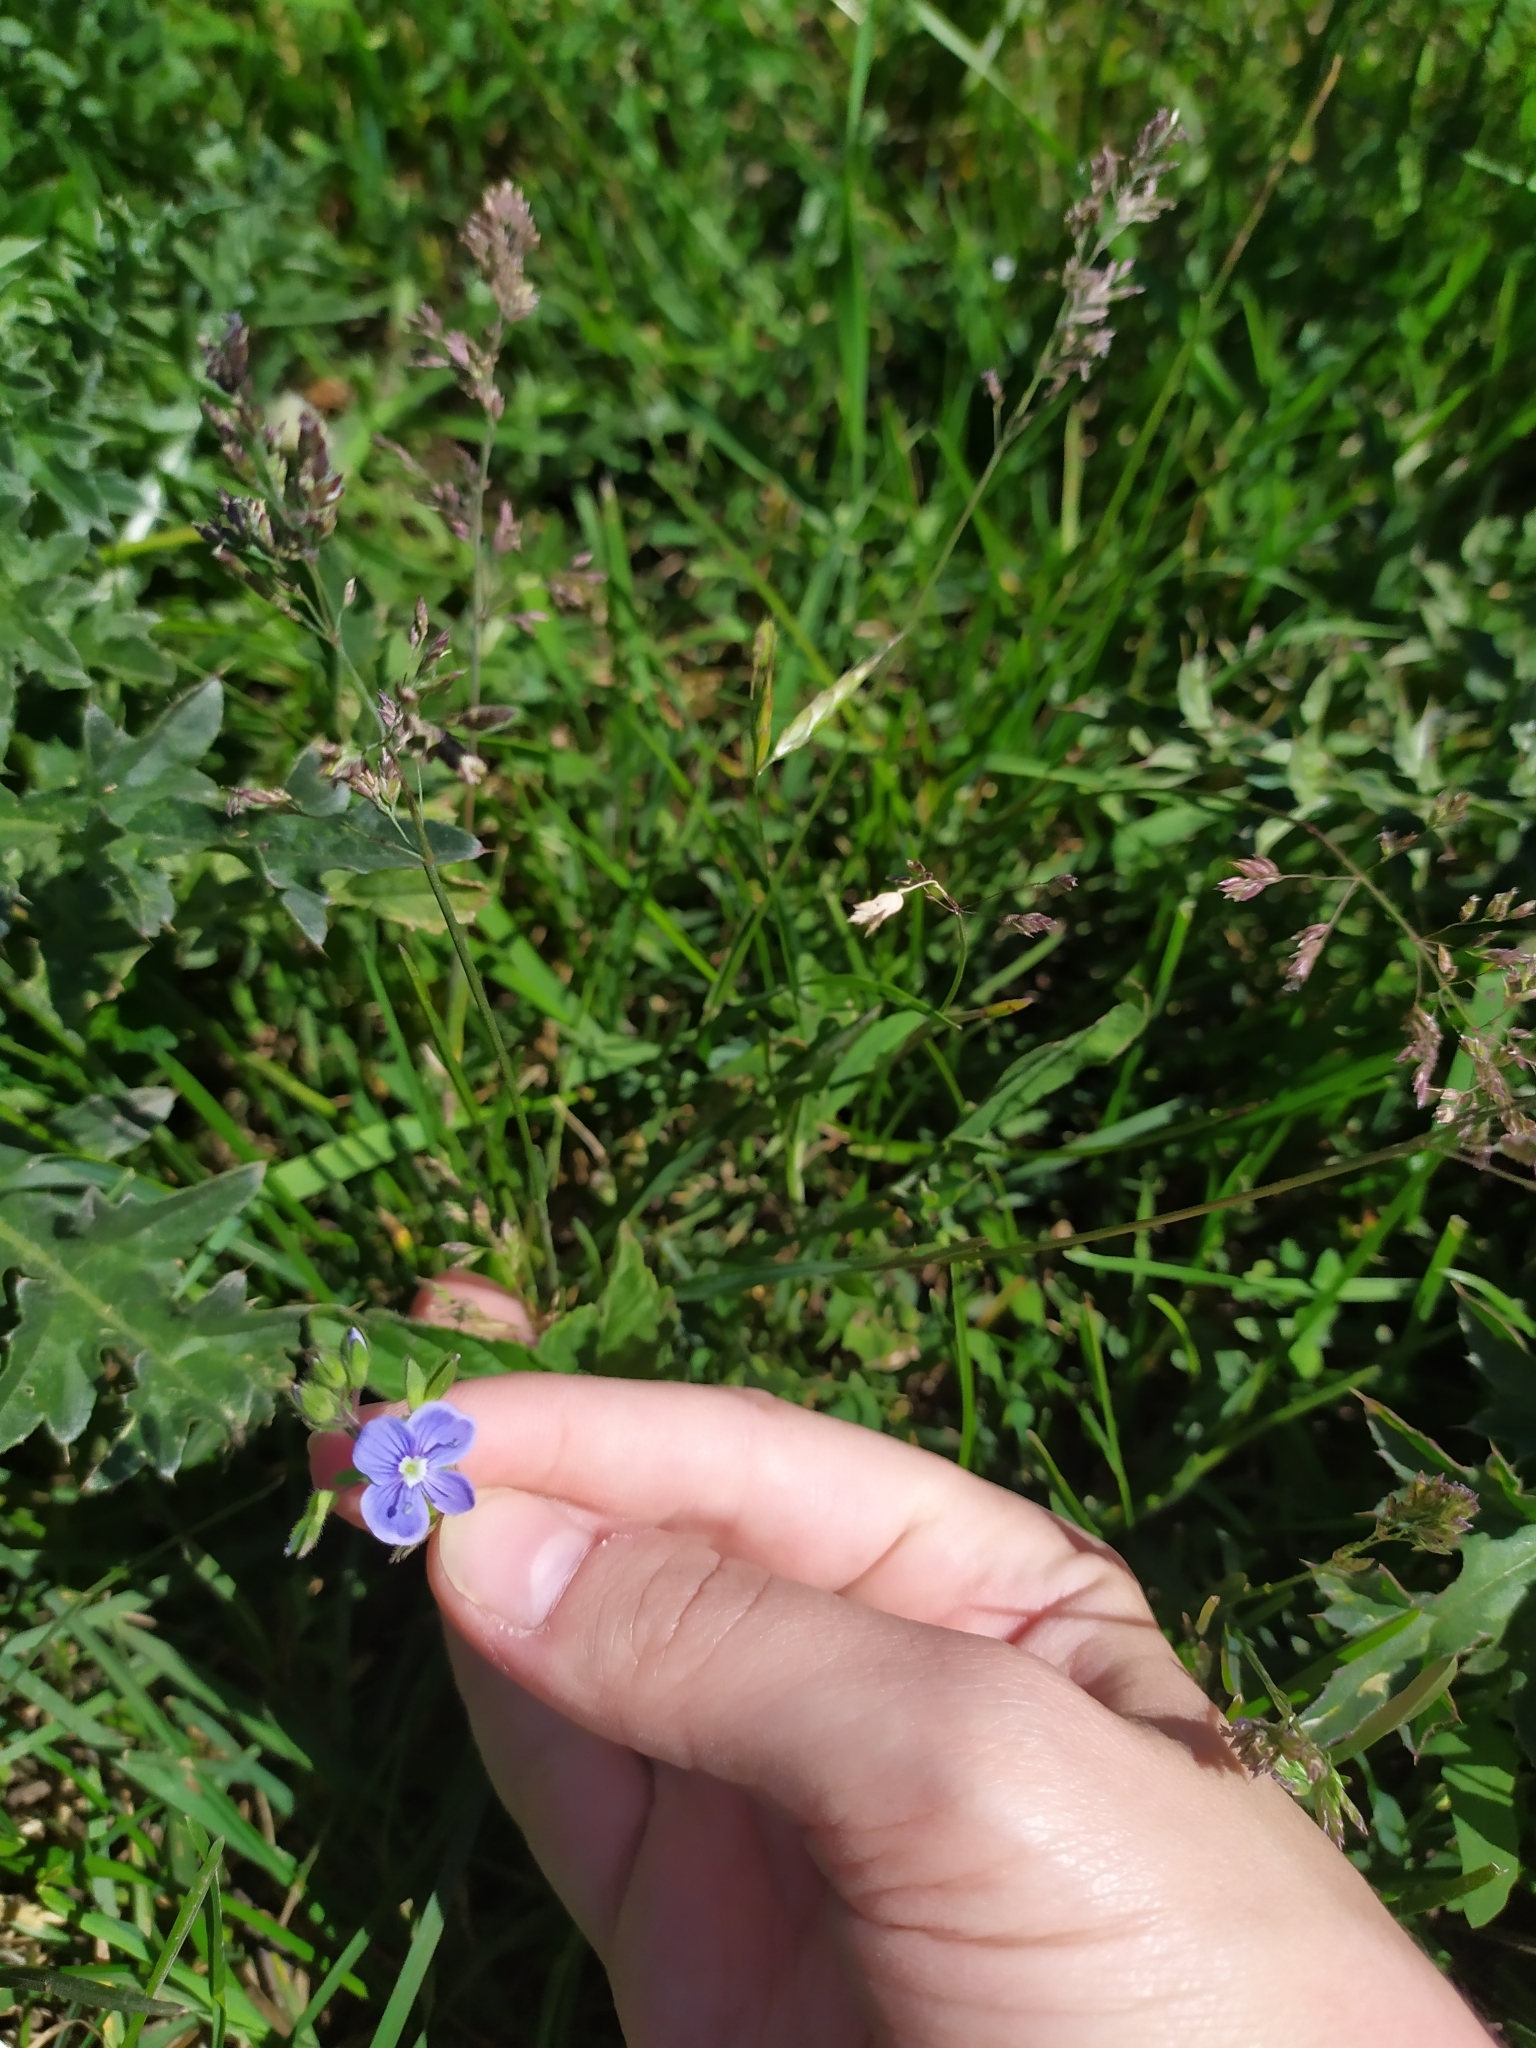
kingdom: Plantae
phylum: Tracheophyta
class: Magnoliopsida
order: Lamiales
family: Plantaginaceae
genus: Veronica
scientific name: Veronica chamaedrys
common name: Germander speedwell
